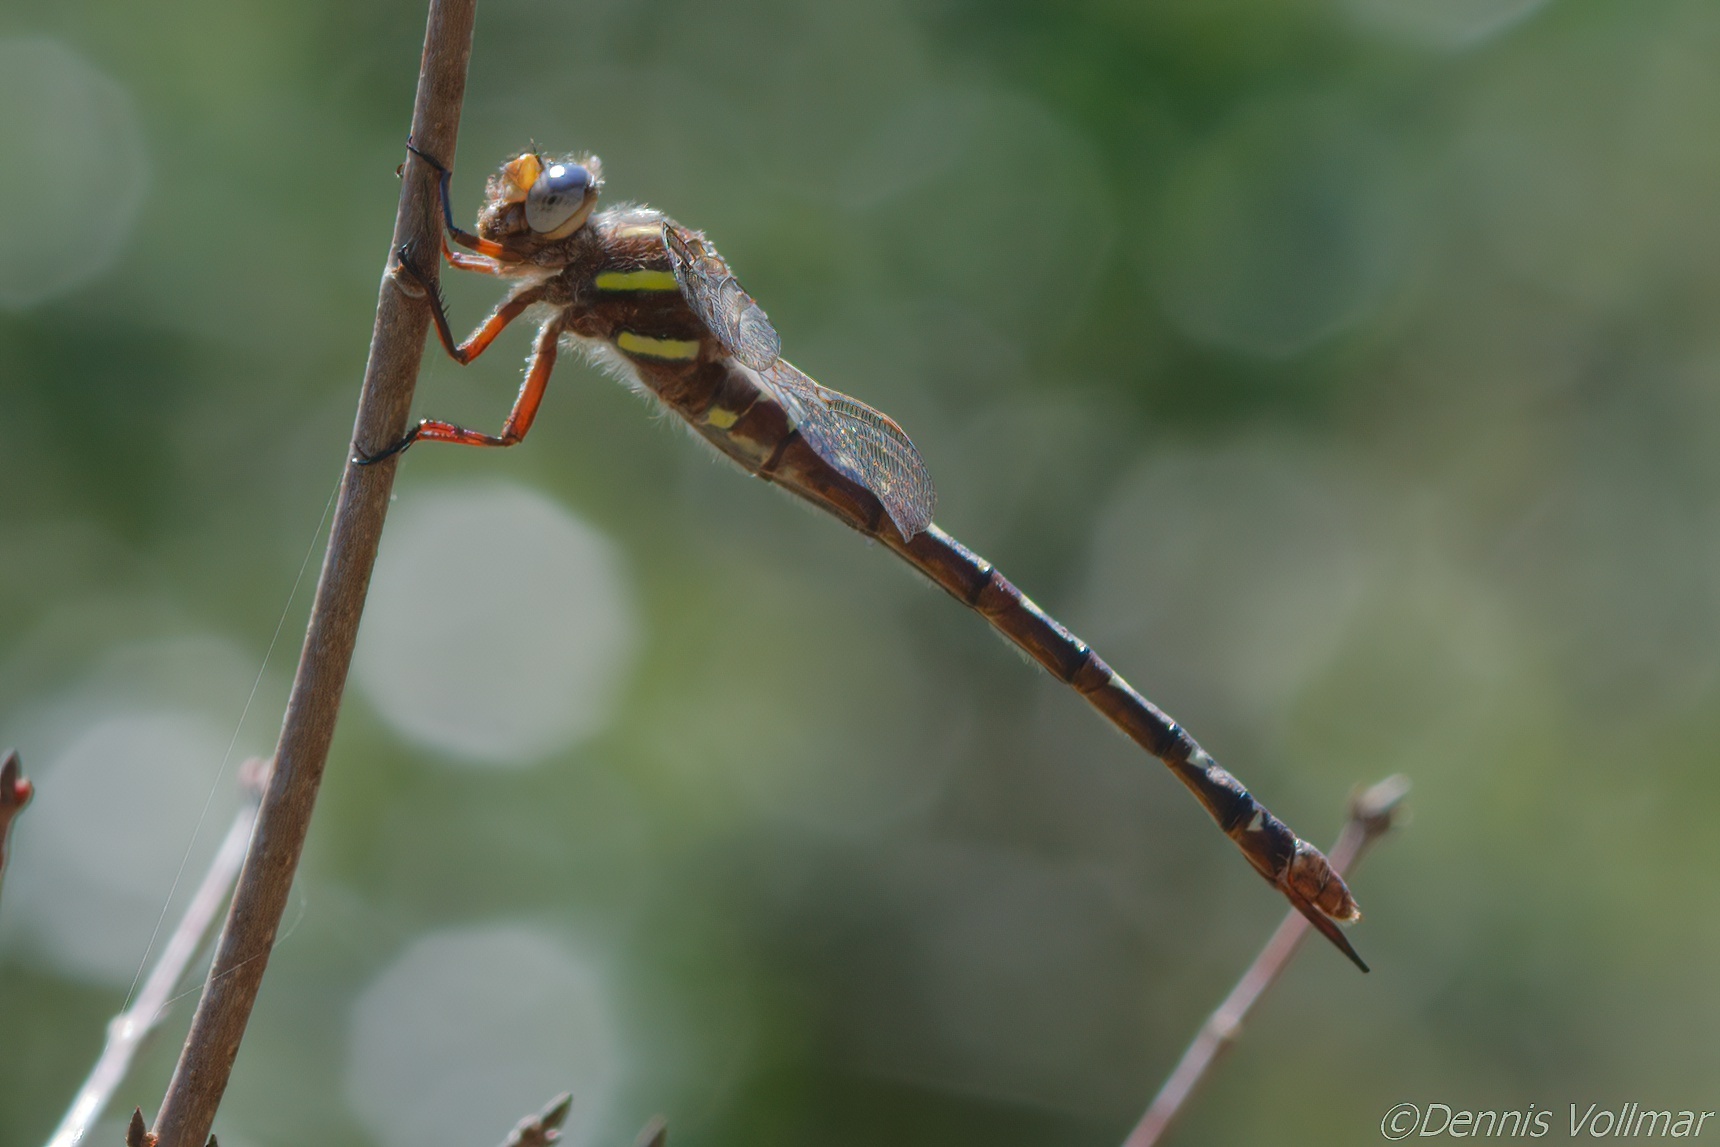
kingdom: Animalia
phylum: Arthropoda
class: Insecta
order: Odonata
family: Gomphidae
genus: Aphylla
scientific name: Aphylla williamsoni
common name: Two-striped forceptail
